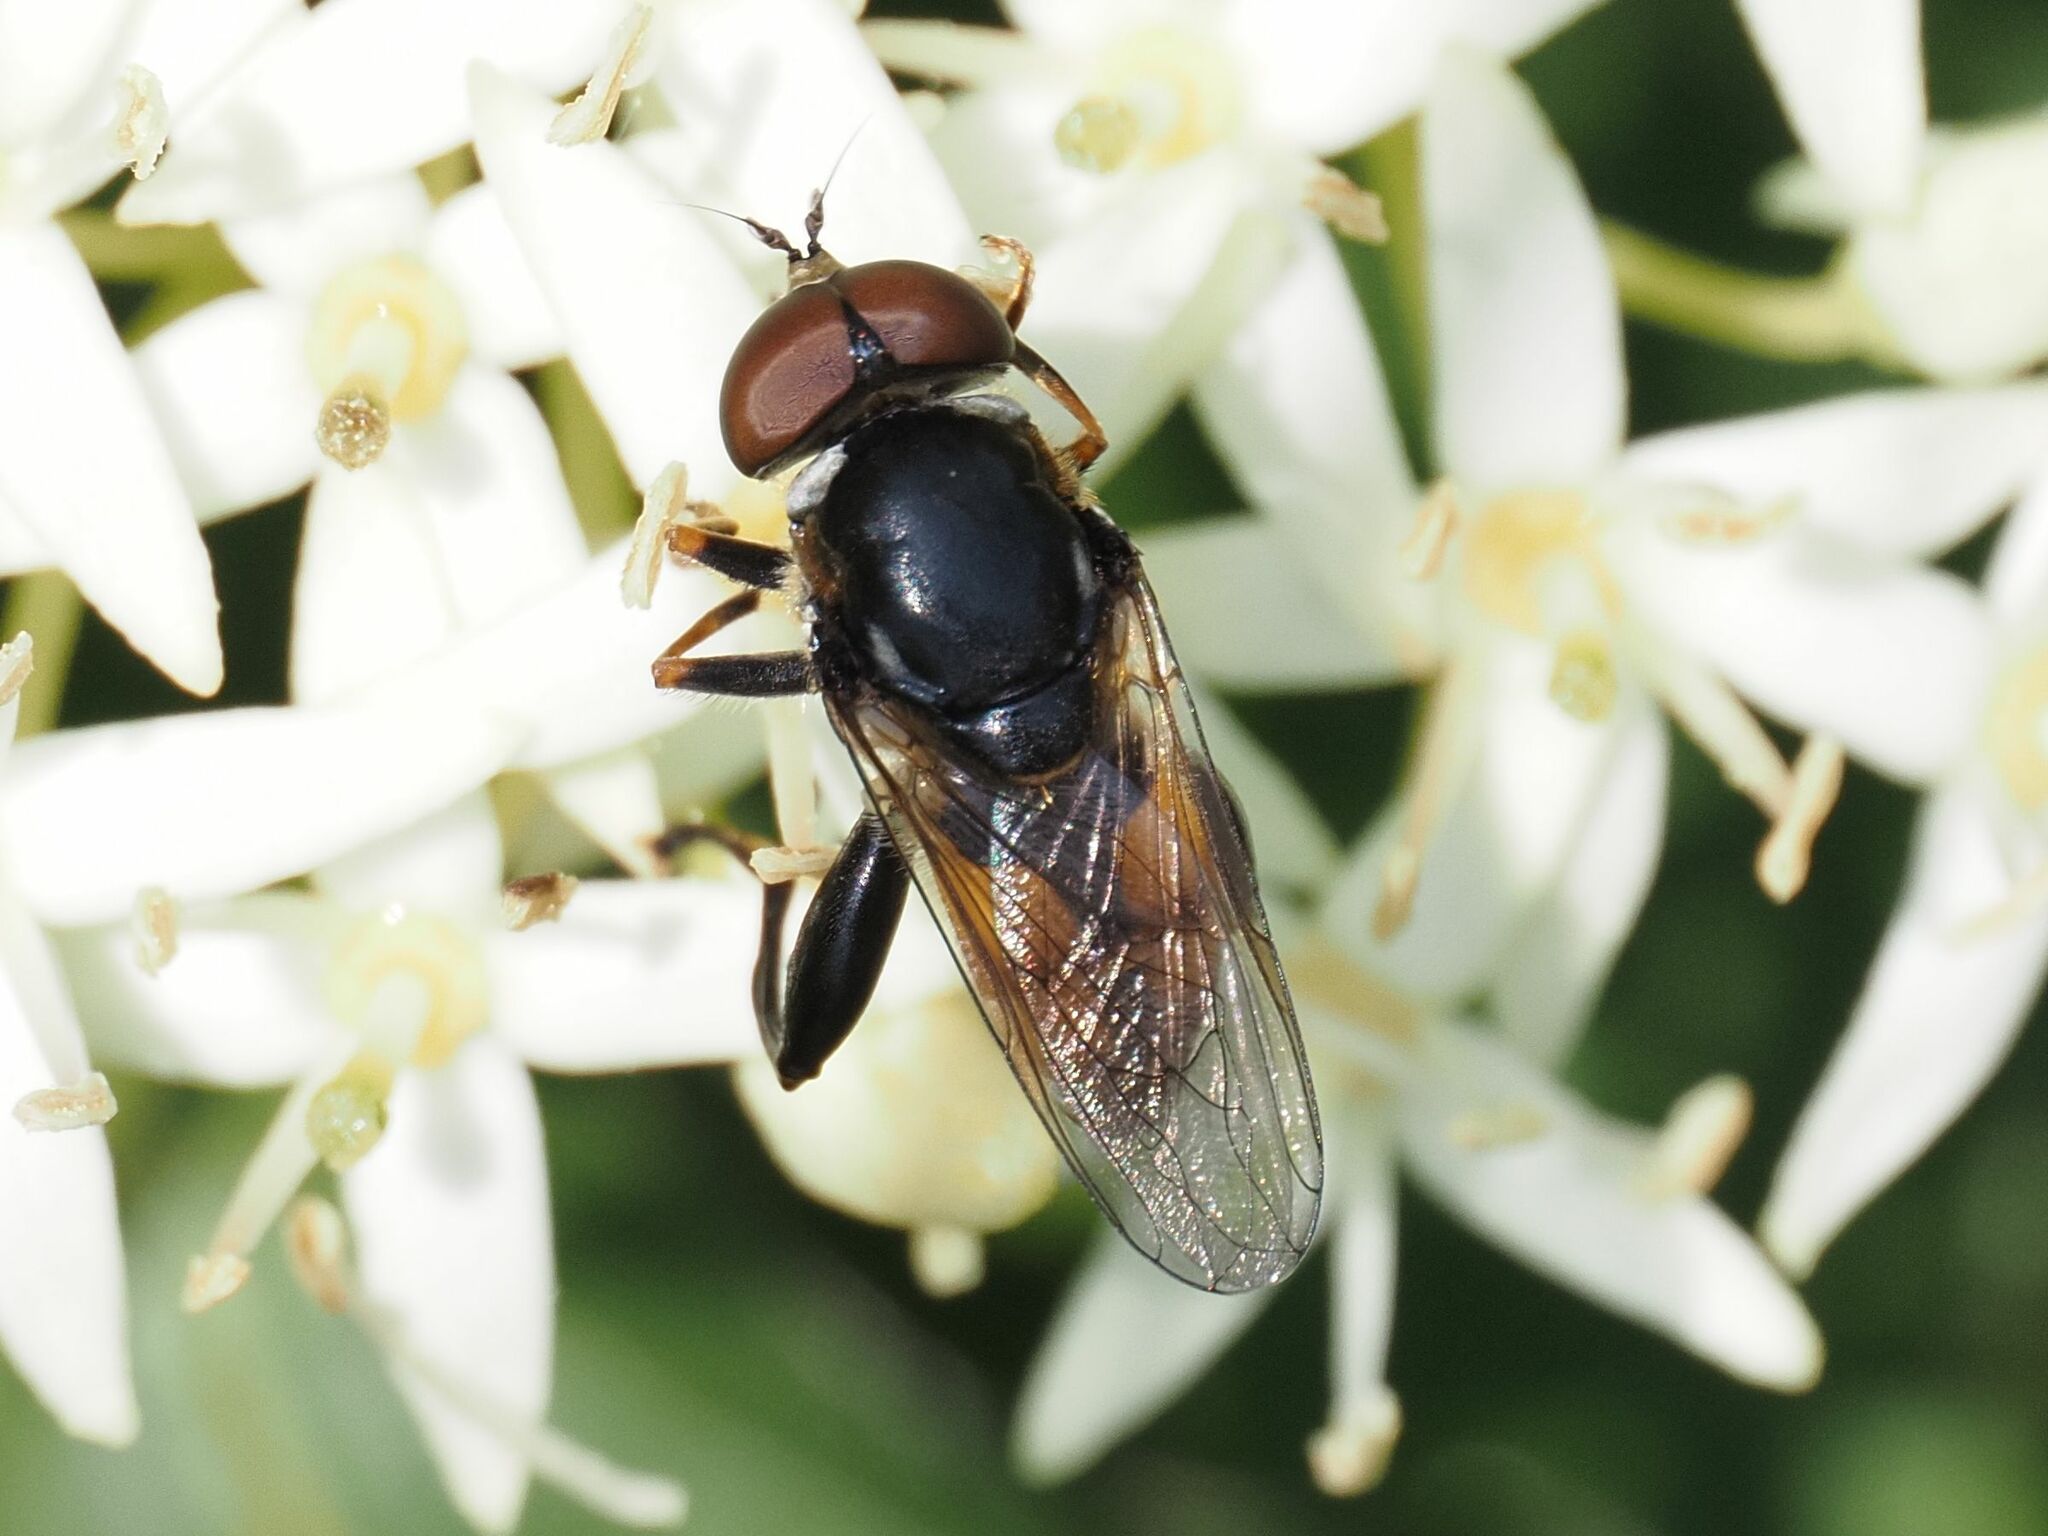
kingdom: Animalia
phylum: Arthropoda
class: Insecta
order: Diptera
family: Syrphidae
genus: Tropidia
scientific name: Tropidia scita
